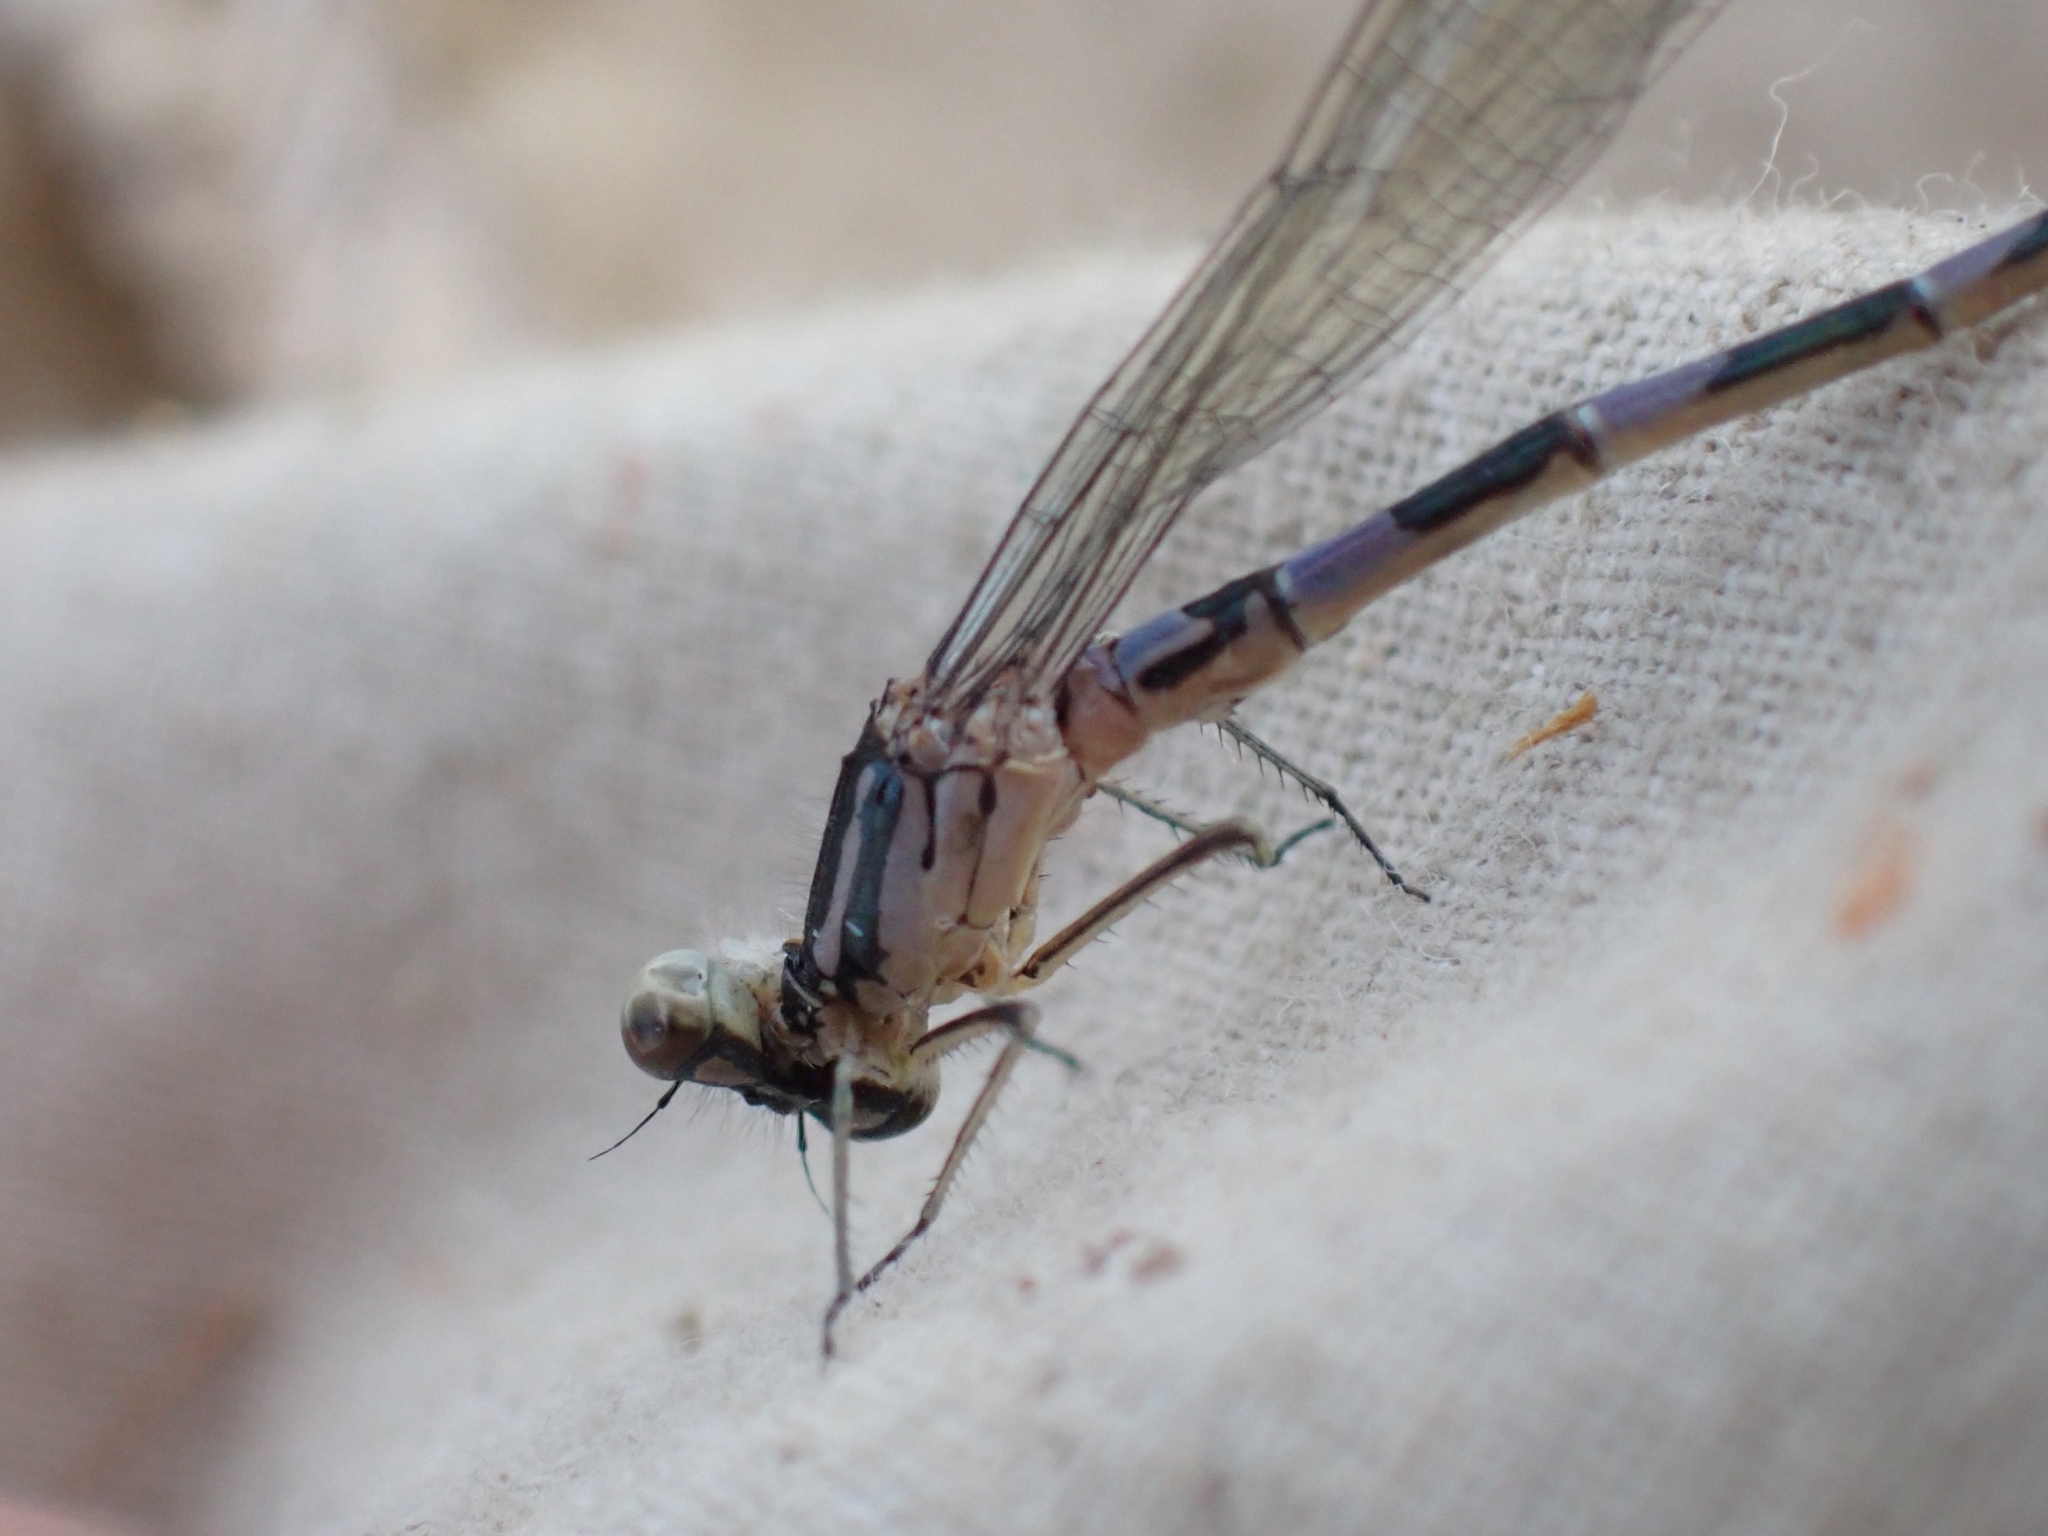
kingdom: Animalia
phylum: Arthropoda
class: Insecta
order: Odonata
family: Coenagrionidae
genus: Coenagrion
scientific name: Coenagrion resolutum
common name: Taiga bluet
